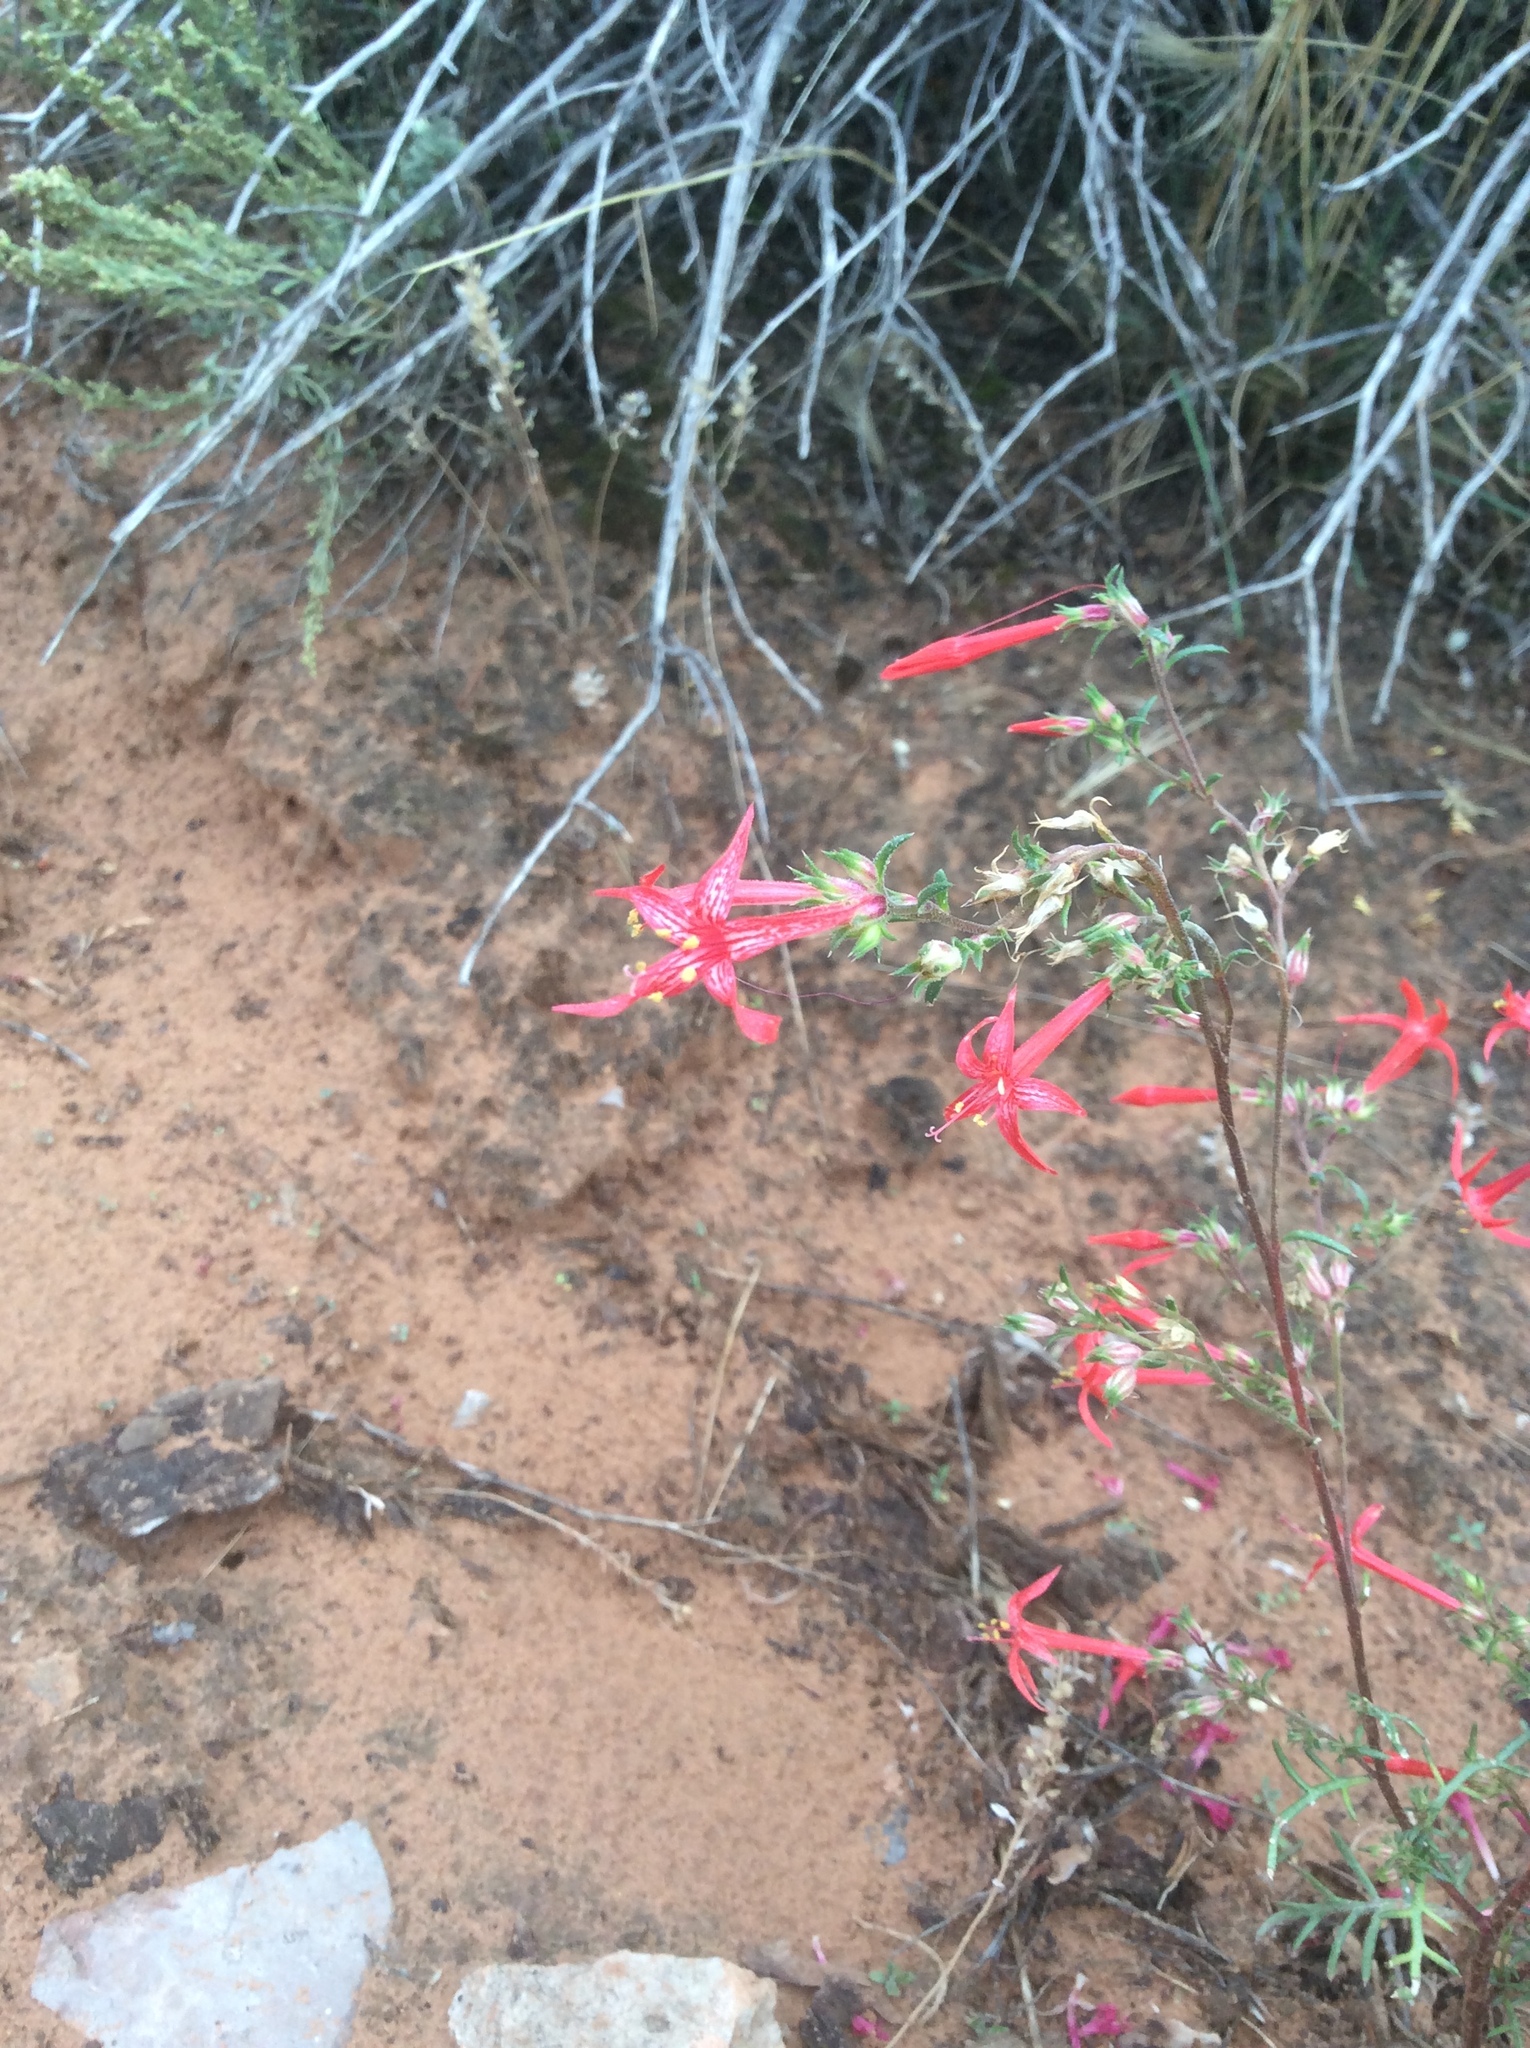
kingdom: Plantae
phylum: Tracheophyta
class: Magnoliopsida
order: Ericales
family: Polemoniaceae
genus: Ipomopsis
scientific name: Ipomopsis aggregata
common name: Scarlet gilia
